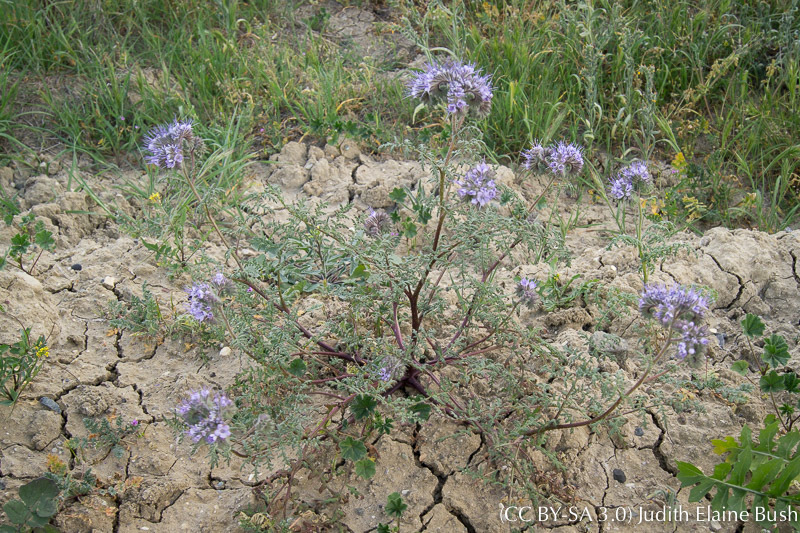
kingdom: Plantae
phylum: Tracheophyta
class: Magnoliopsida
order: Boraginales
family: Hydrophyllaceae
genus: Phacelia
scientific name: Phacelia tanacetifolia
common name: Phacelia
